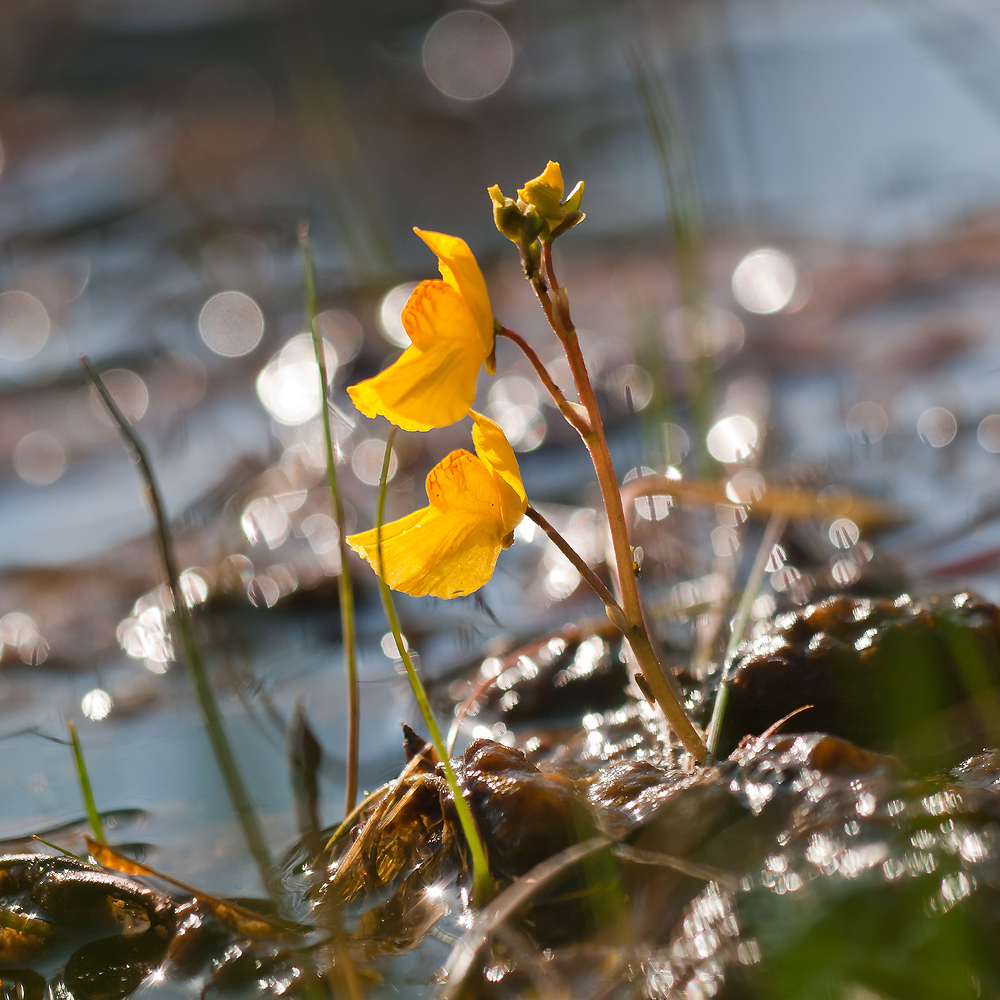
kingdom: Plantae
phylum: Tracheophyta
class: Magnoliopsida
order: Lamiales
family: Lentibulariaceae
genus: Utricularia
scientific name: Utricularia australis
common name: Bladderwort
